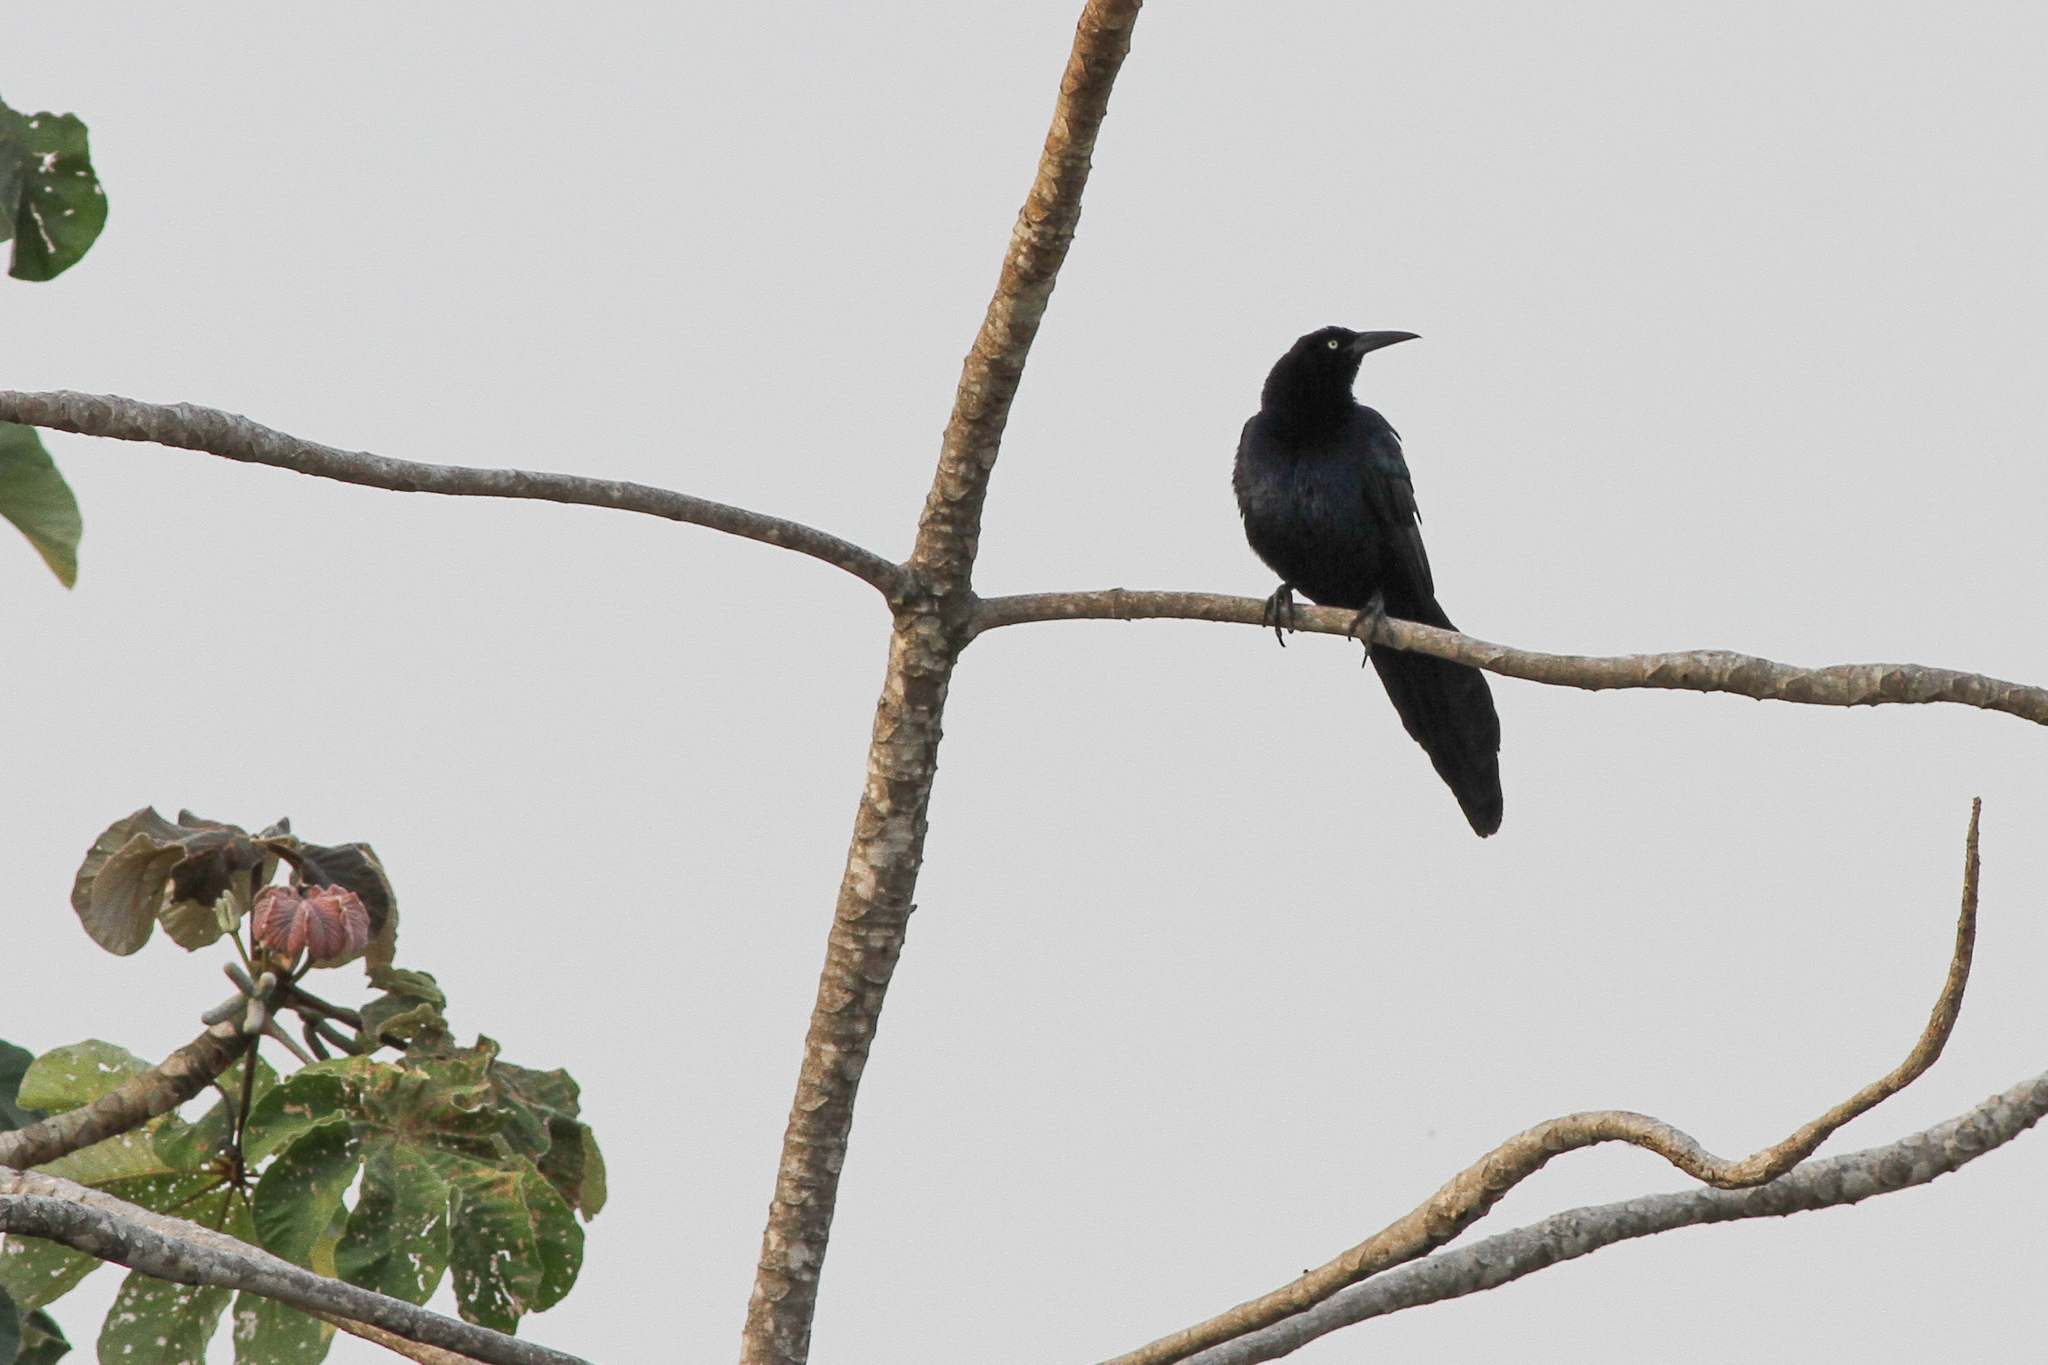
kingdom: Animalia
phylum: Chordata
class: Aves
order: Passeriformes
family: Icteridae
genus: Quiscalus
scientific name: Quiscalus mexicanus
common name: Great-tailed grackle
